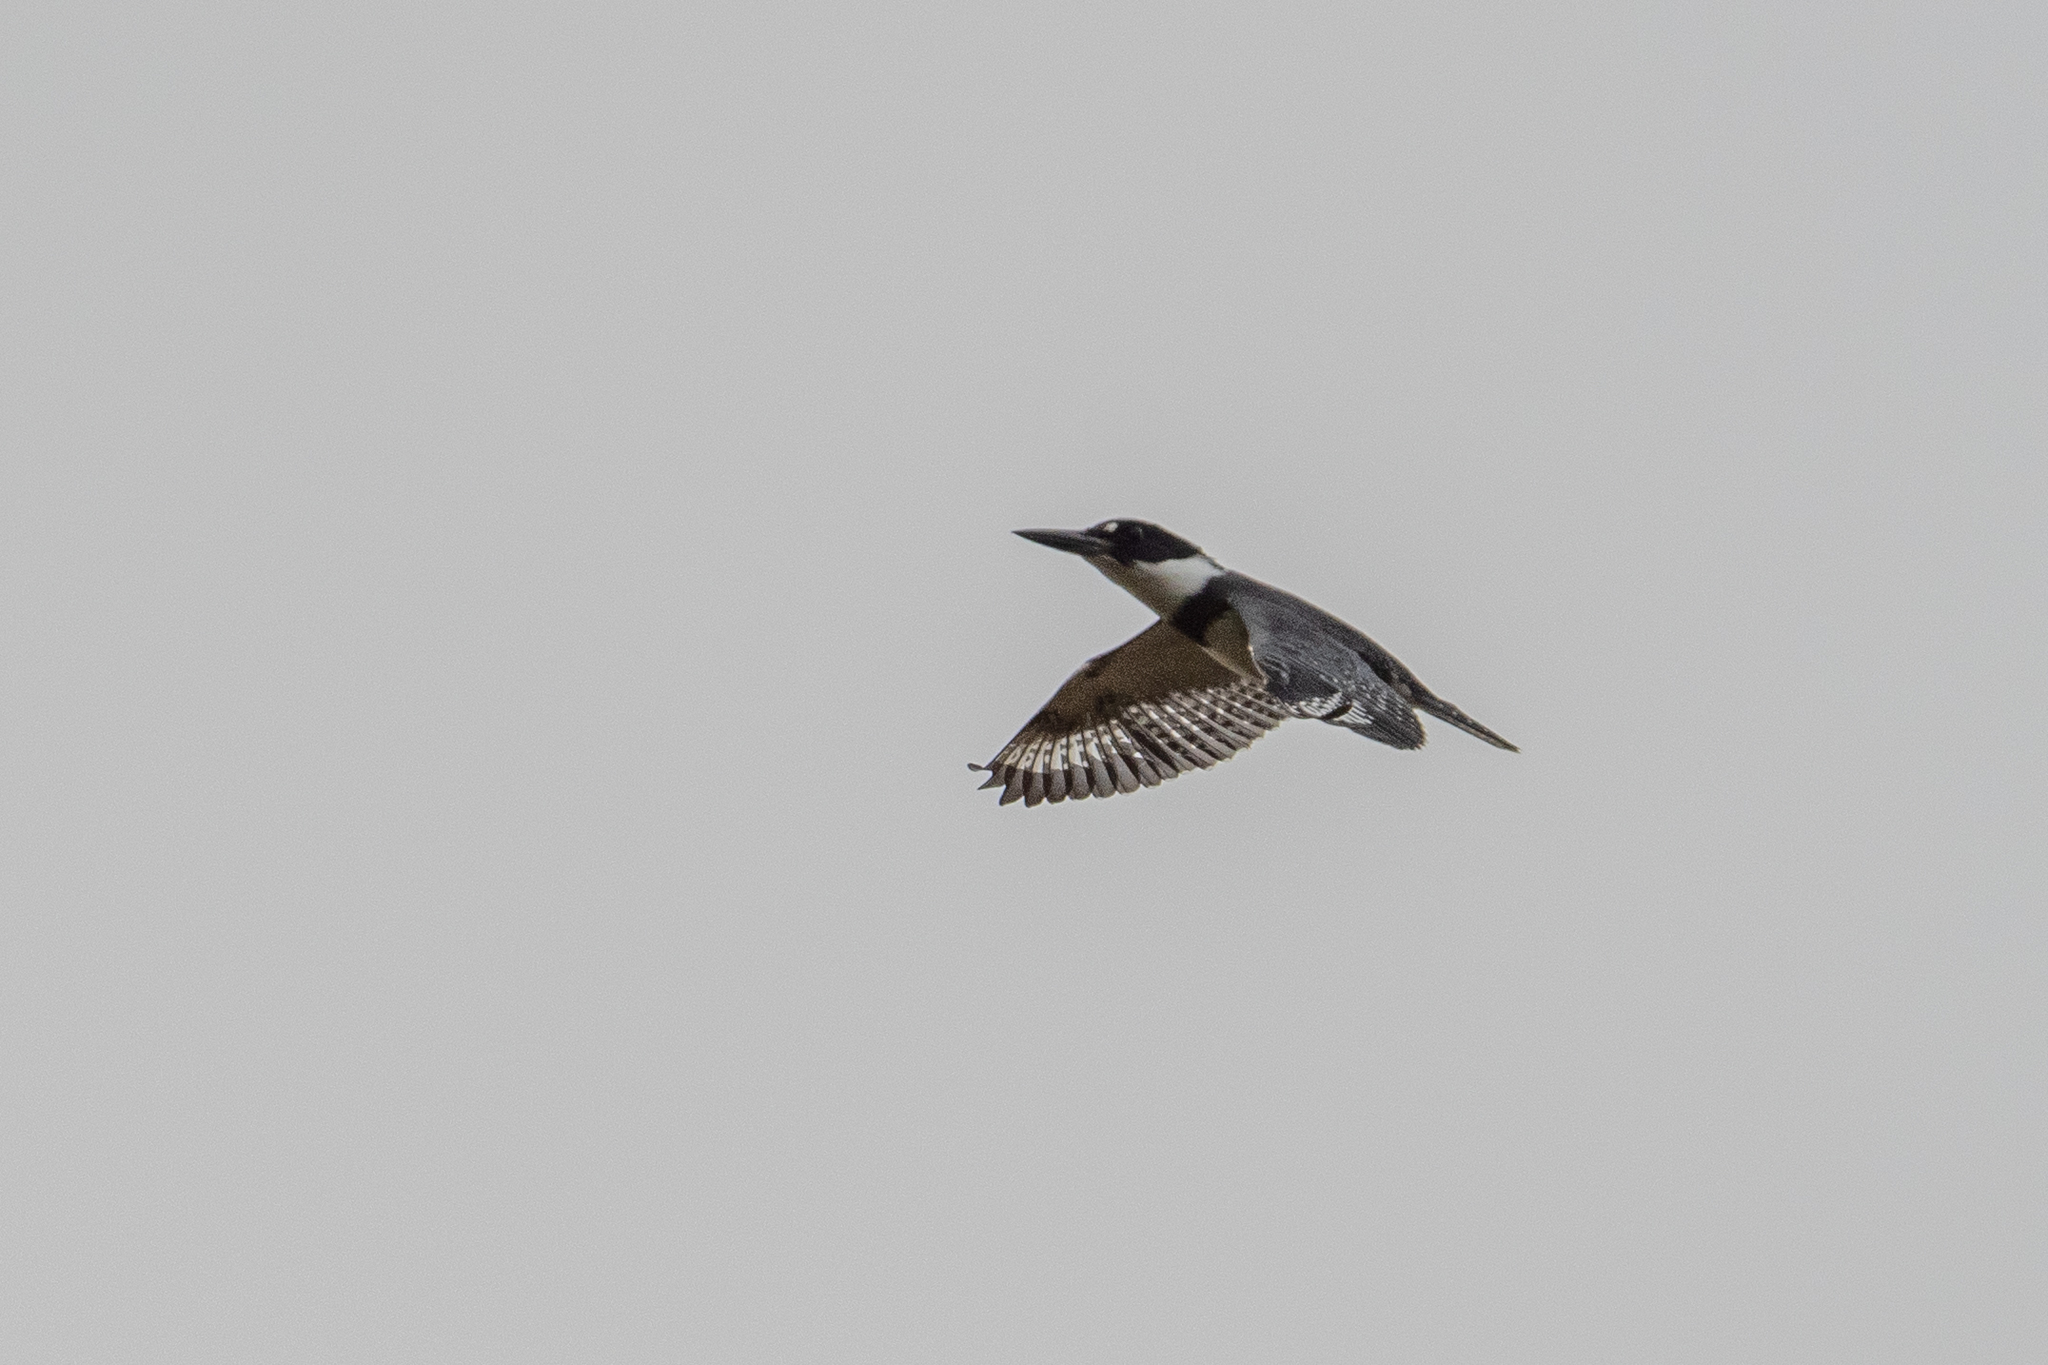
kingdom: Animalia
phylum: Chordata
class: Aves
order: Coraciiformes
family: Alcedinidae
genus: Megaceryle
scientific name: Megaceryle alcyon
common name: Belted kingfisher
